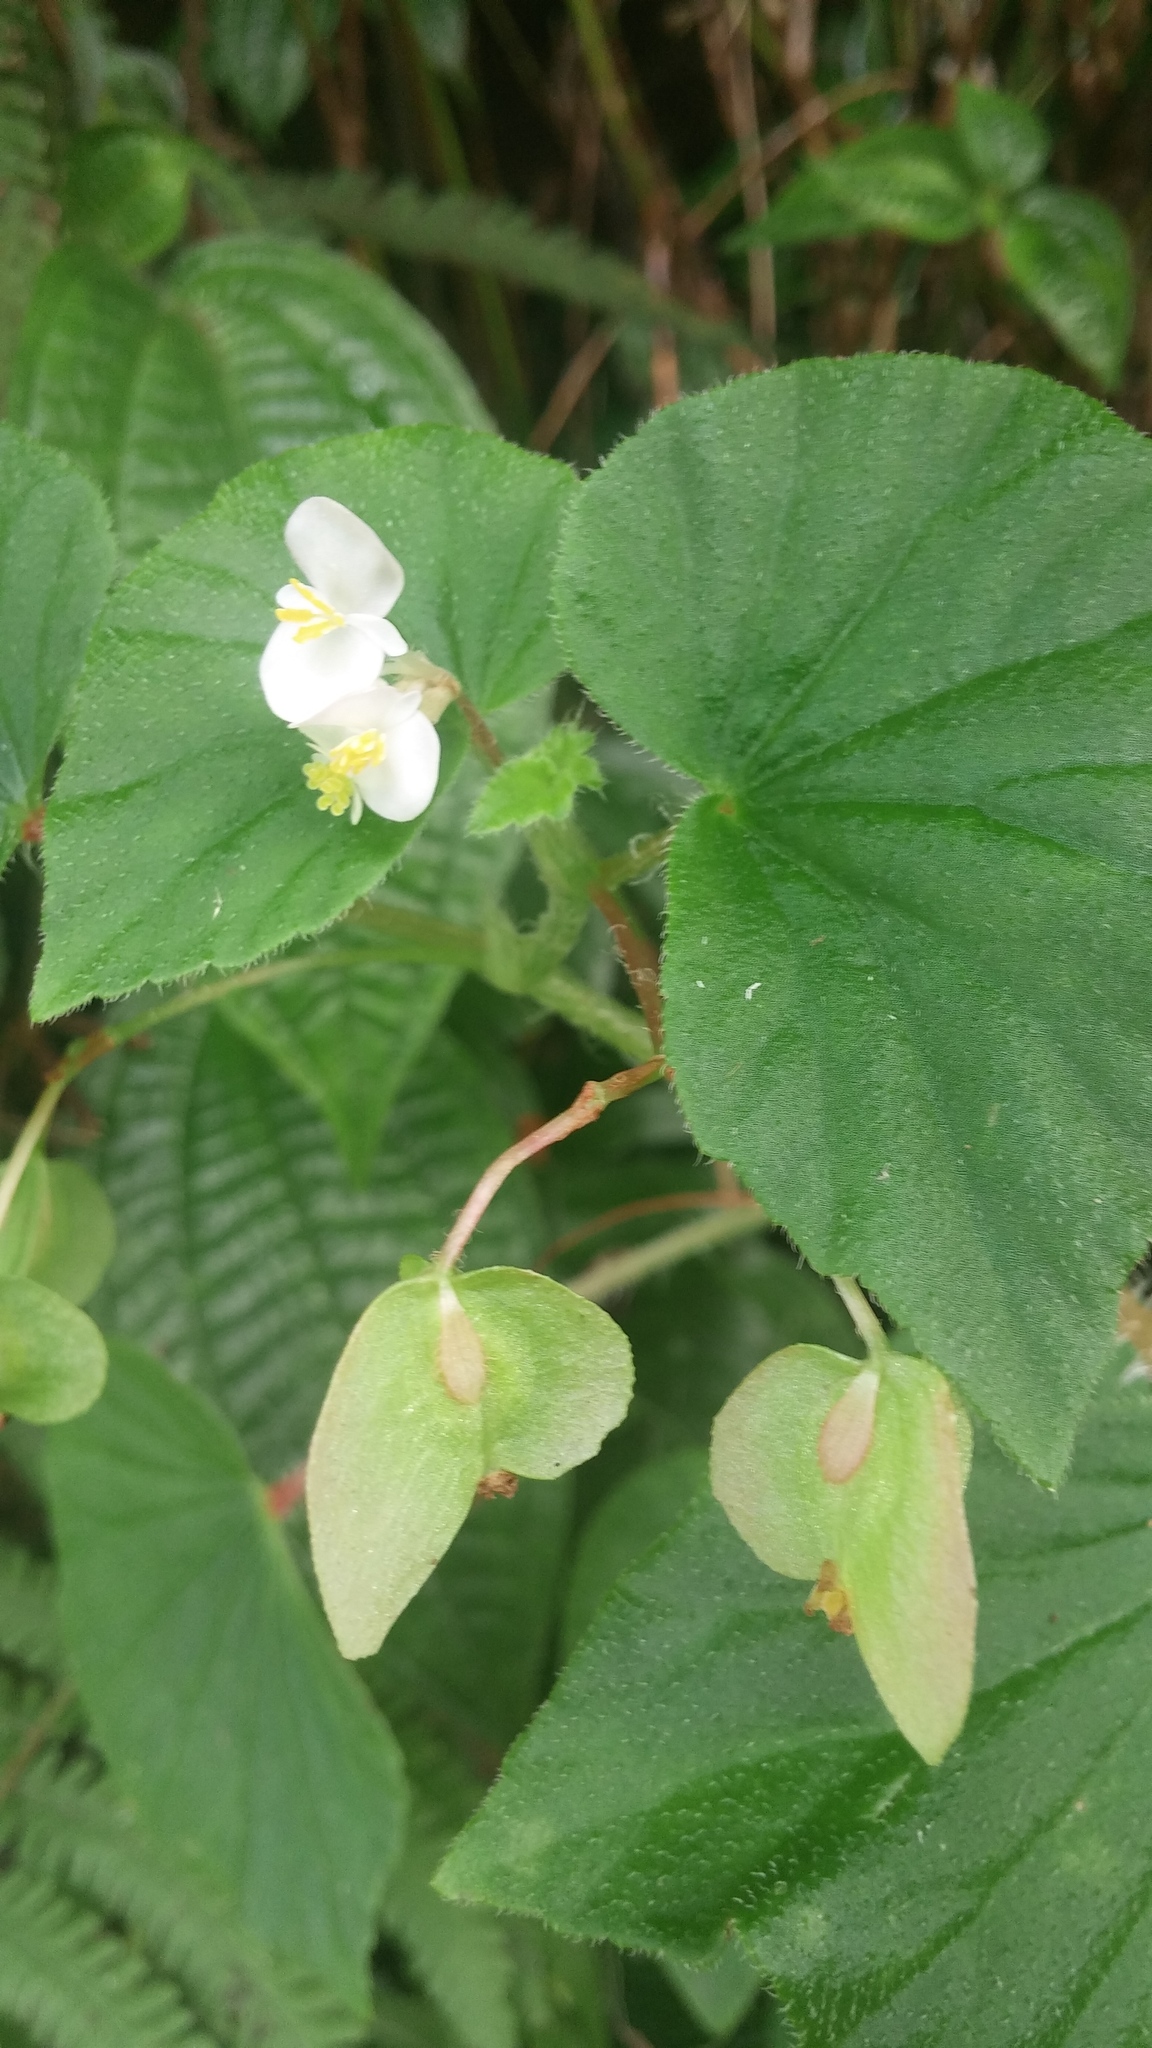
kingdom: Plantae
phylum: Tracheophyta
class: Magnoliopsida
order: Cucurbitales
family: Begoniaceae
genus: Begonia
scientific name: Begonia hirtella
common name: Brazilian begonia
